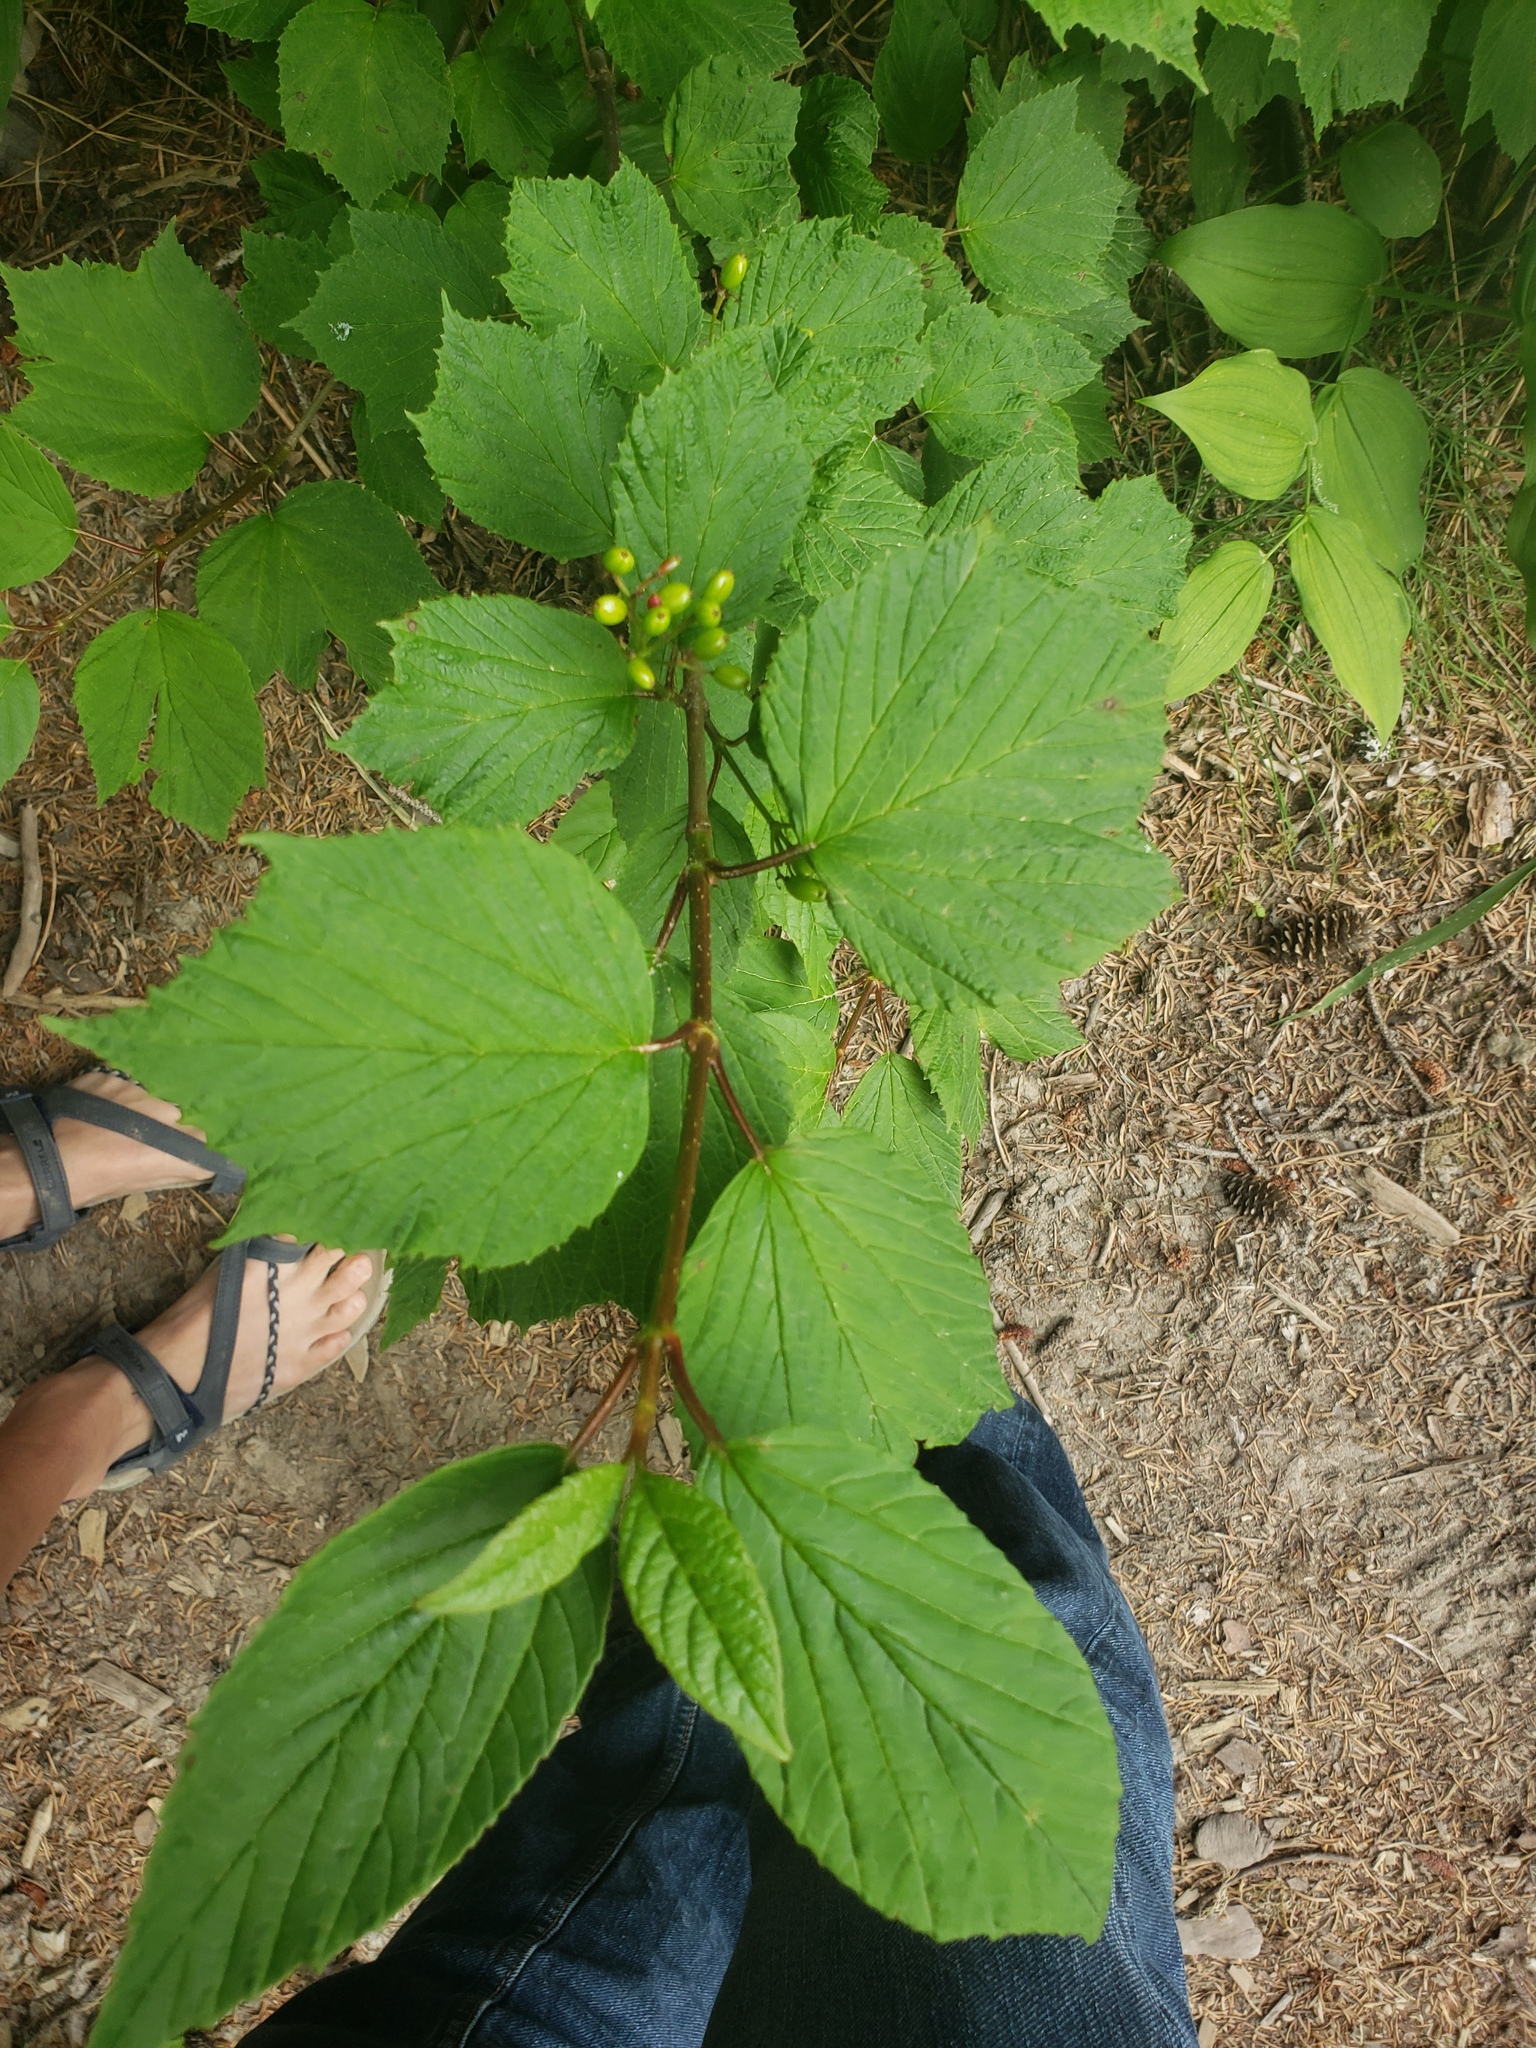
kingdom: Plantae
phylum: Tracheophyta
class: Magnoliopsida
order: Dipsacales
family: Viburnaceae
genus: Viburnum
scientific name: Viburnum edule
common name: Mooseberry
